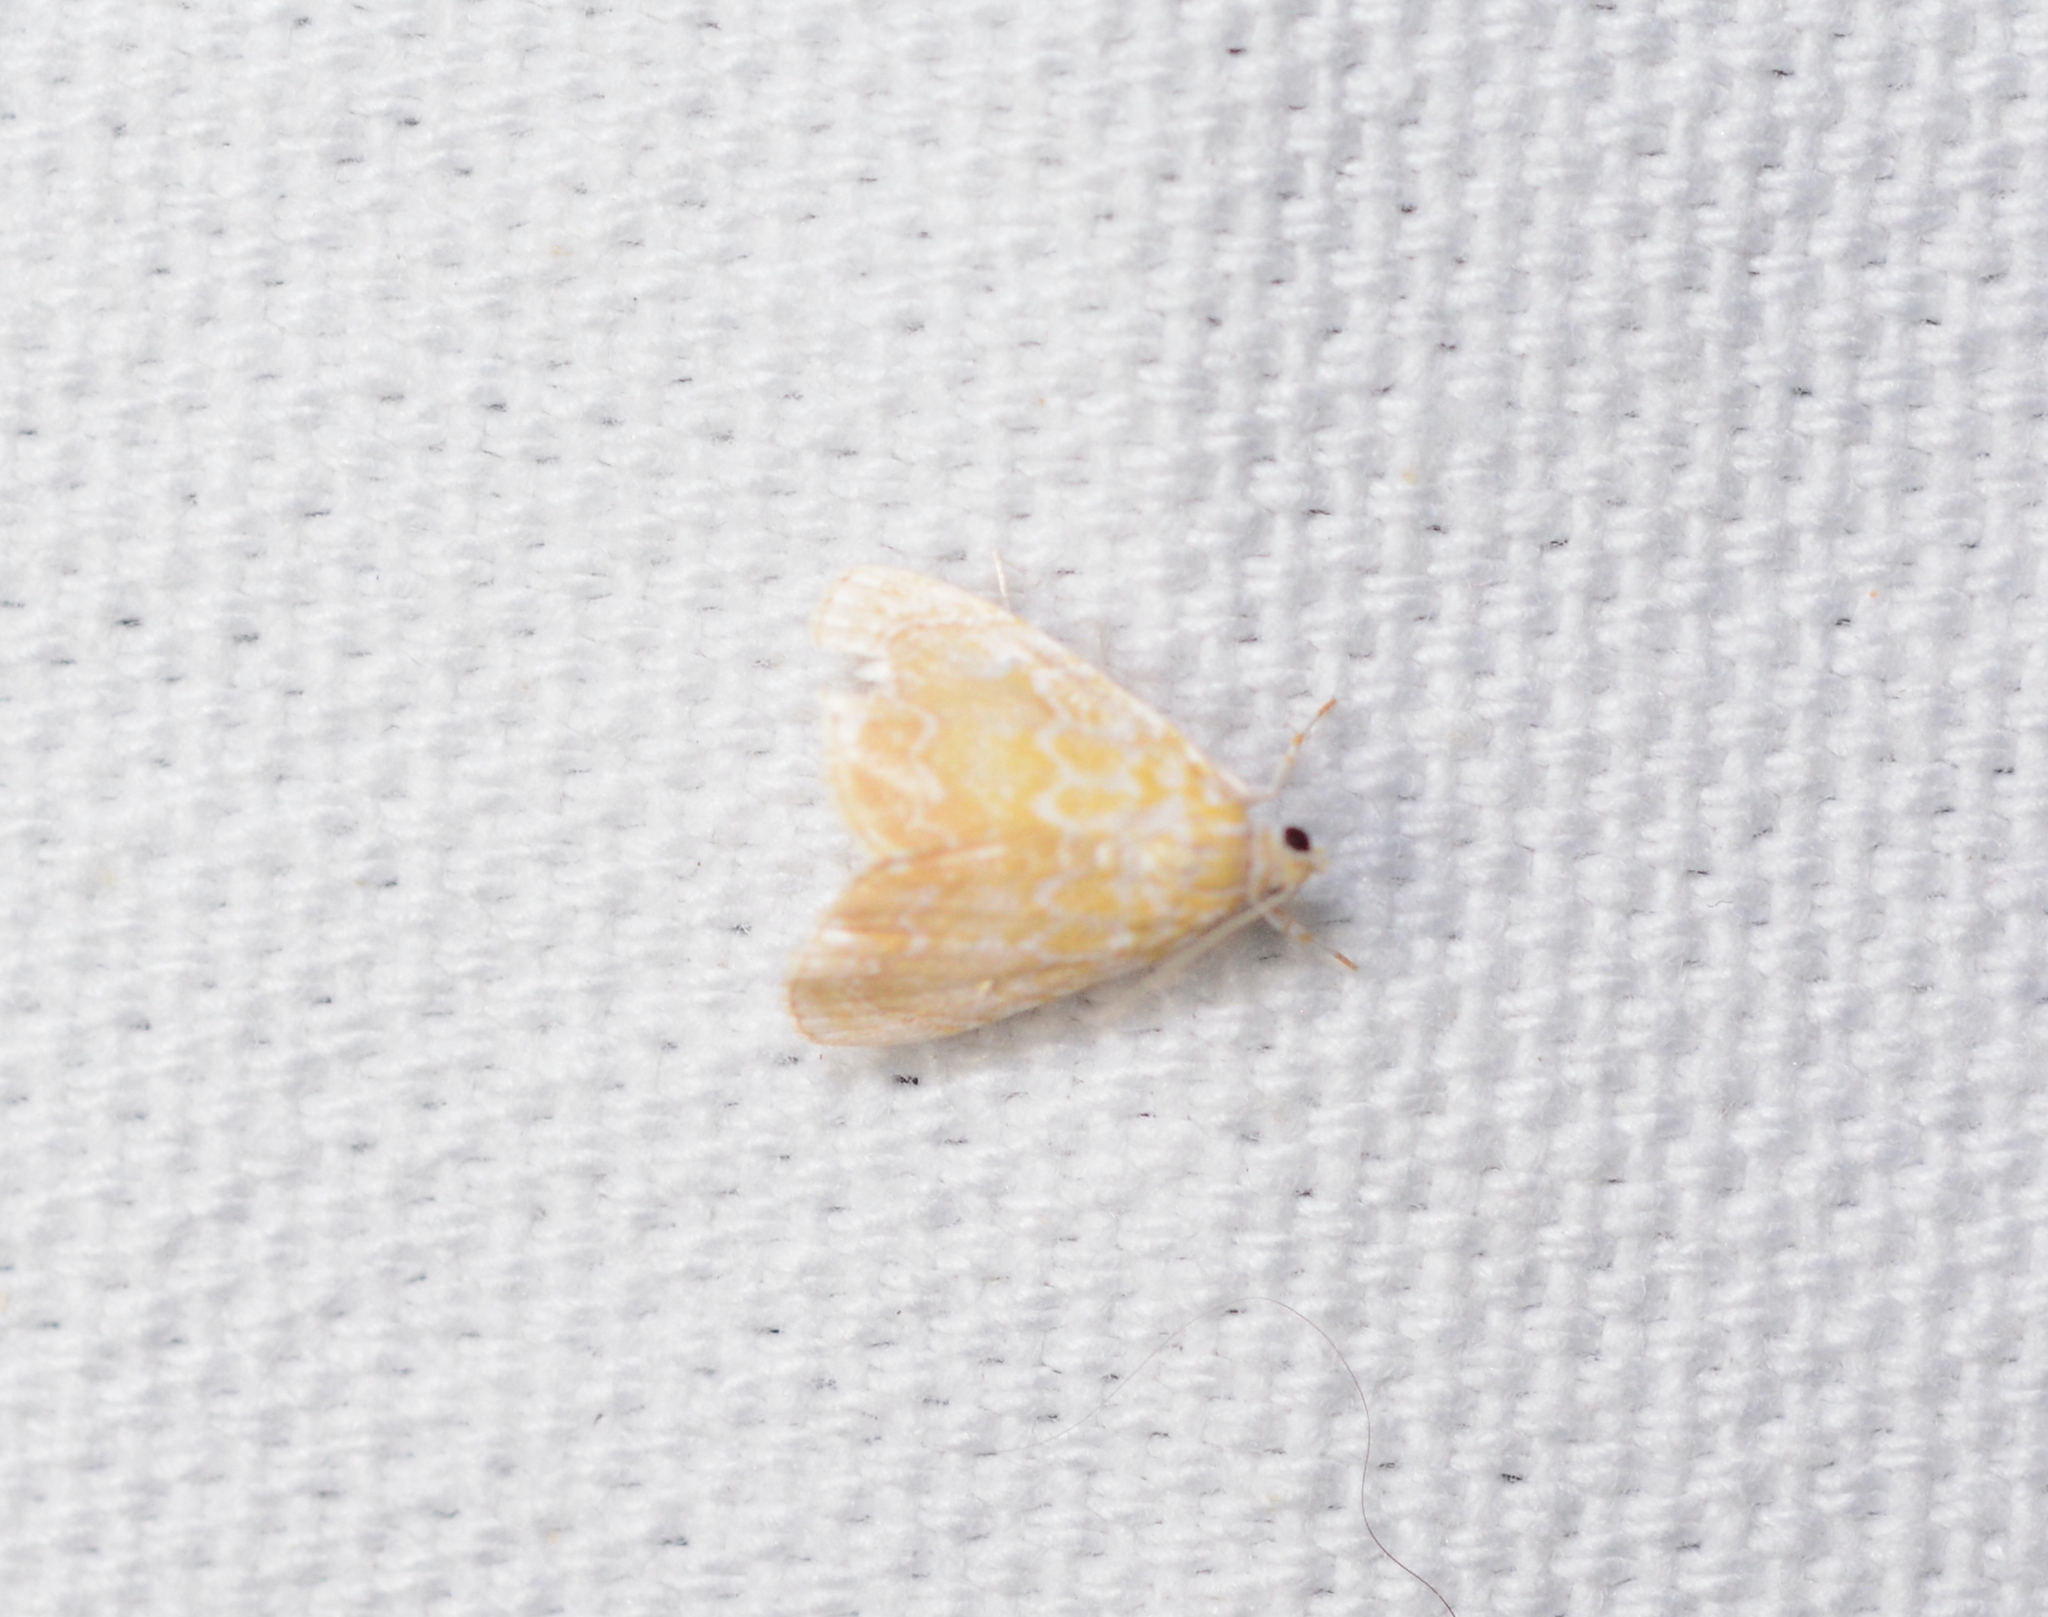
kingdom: Animalia
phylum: Arthropoda
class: Insecta
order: Lepidoptera
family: Crambidae
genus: Glaphyria
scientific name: Glaphyria glaphyralis
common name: Common glaphyria moth
